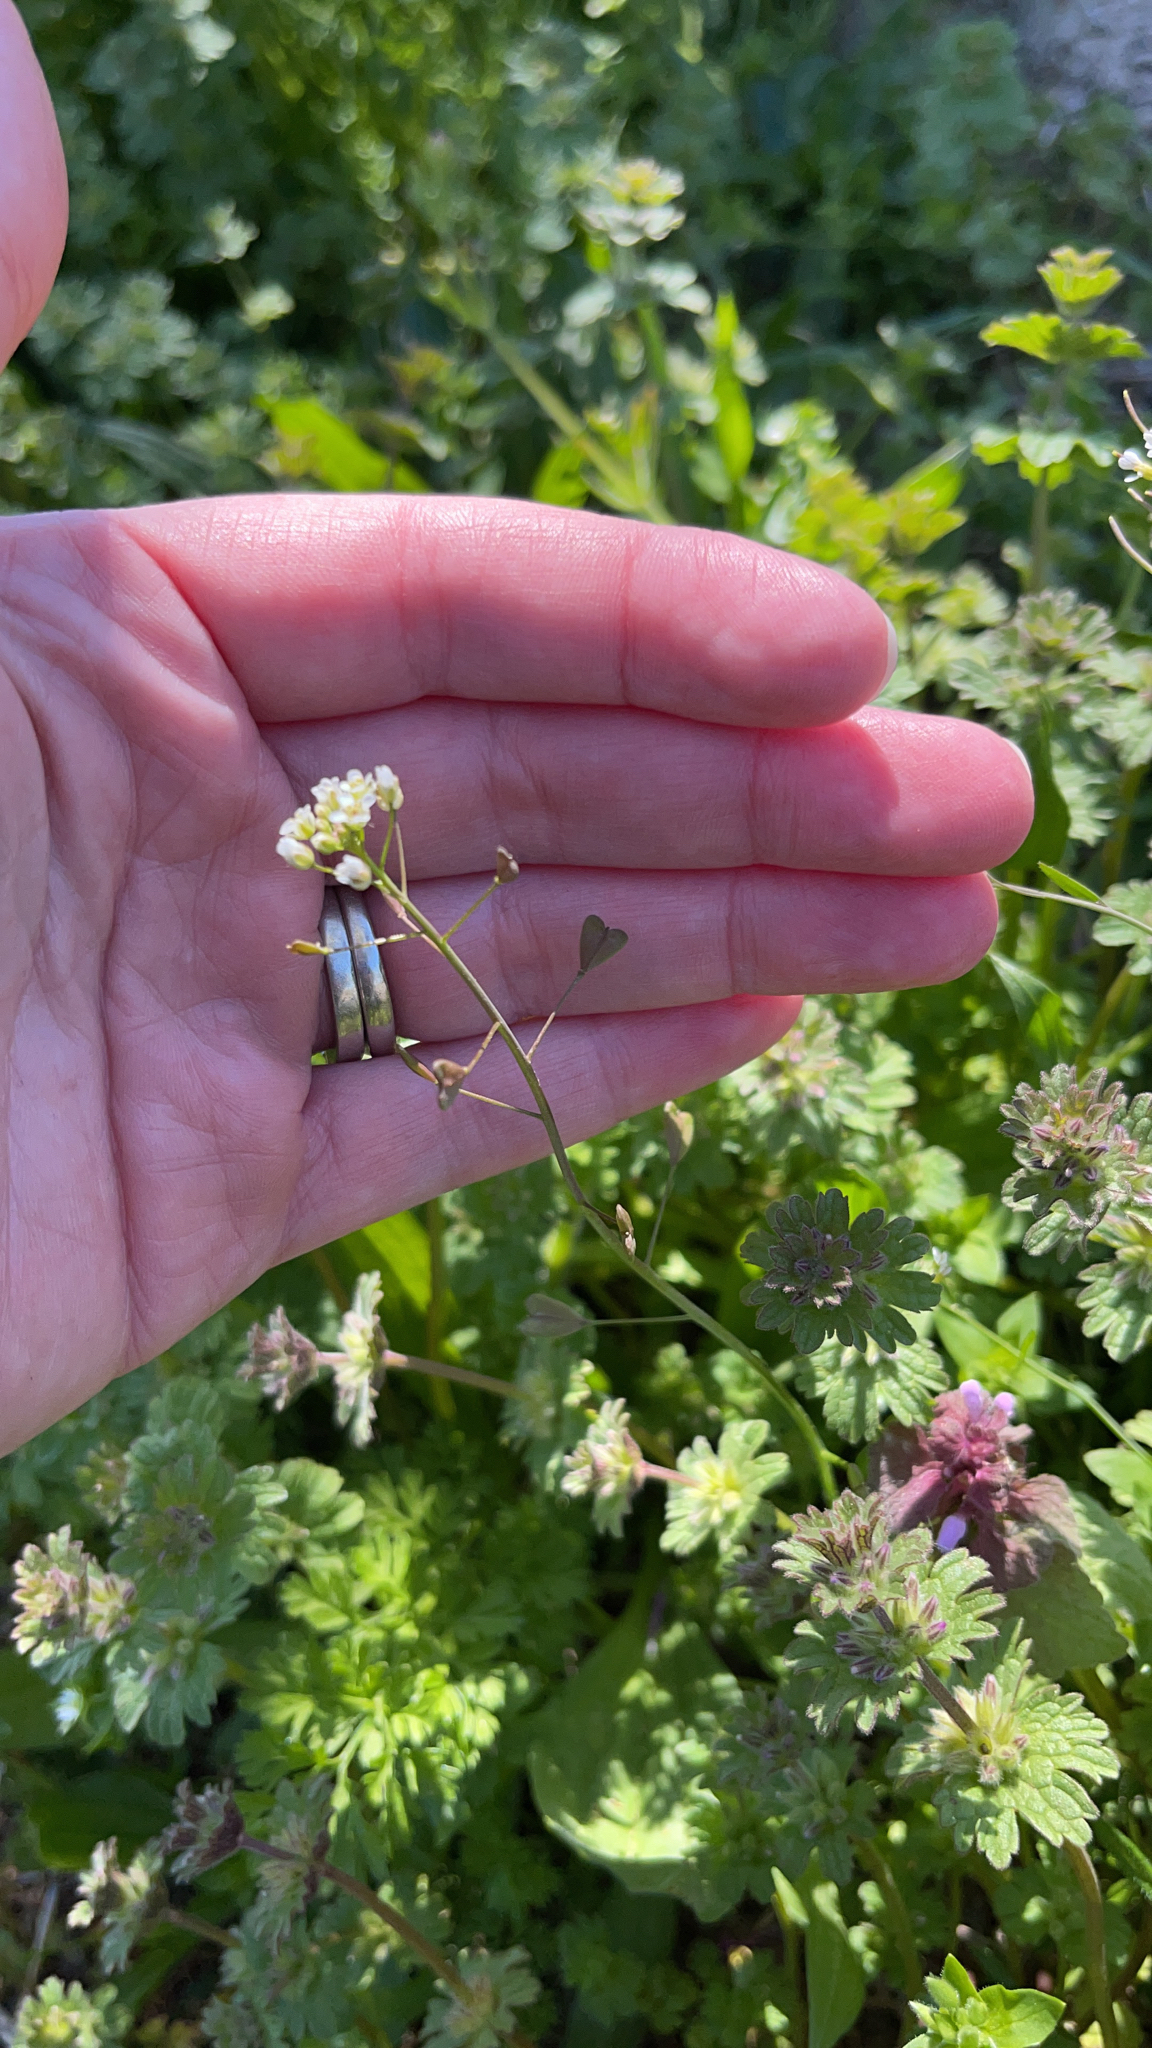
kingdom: Plantae
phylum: Tracheophyta
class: Magnoliopsida
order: Brassicales
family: Brassicaceae
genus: Capsella
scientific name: Capsella bursa-pastoris
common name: Shepherd's purse
